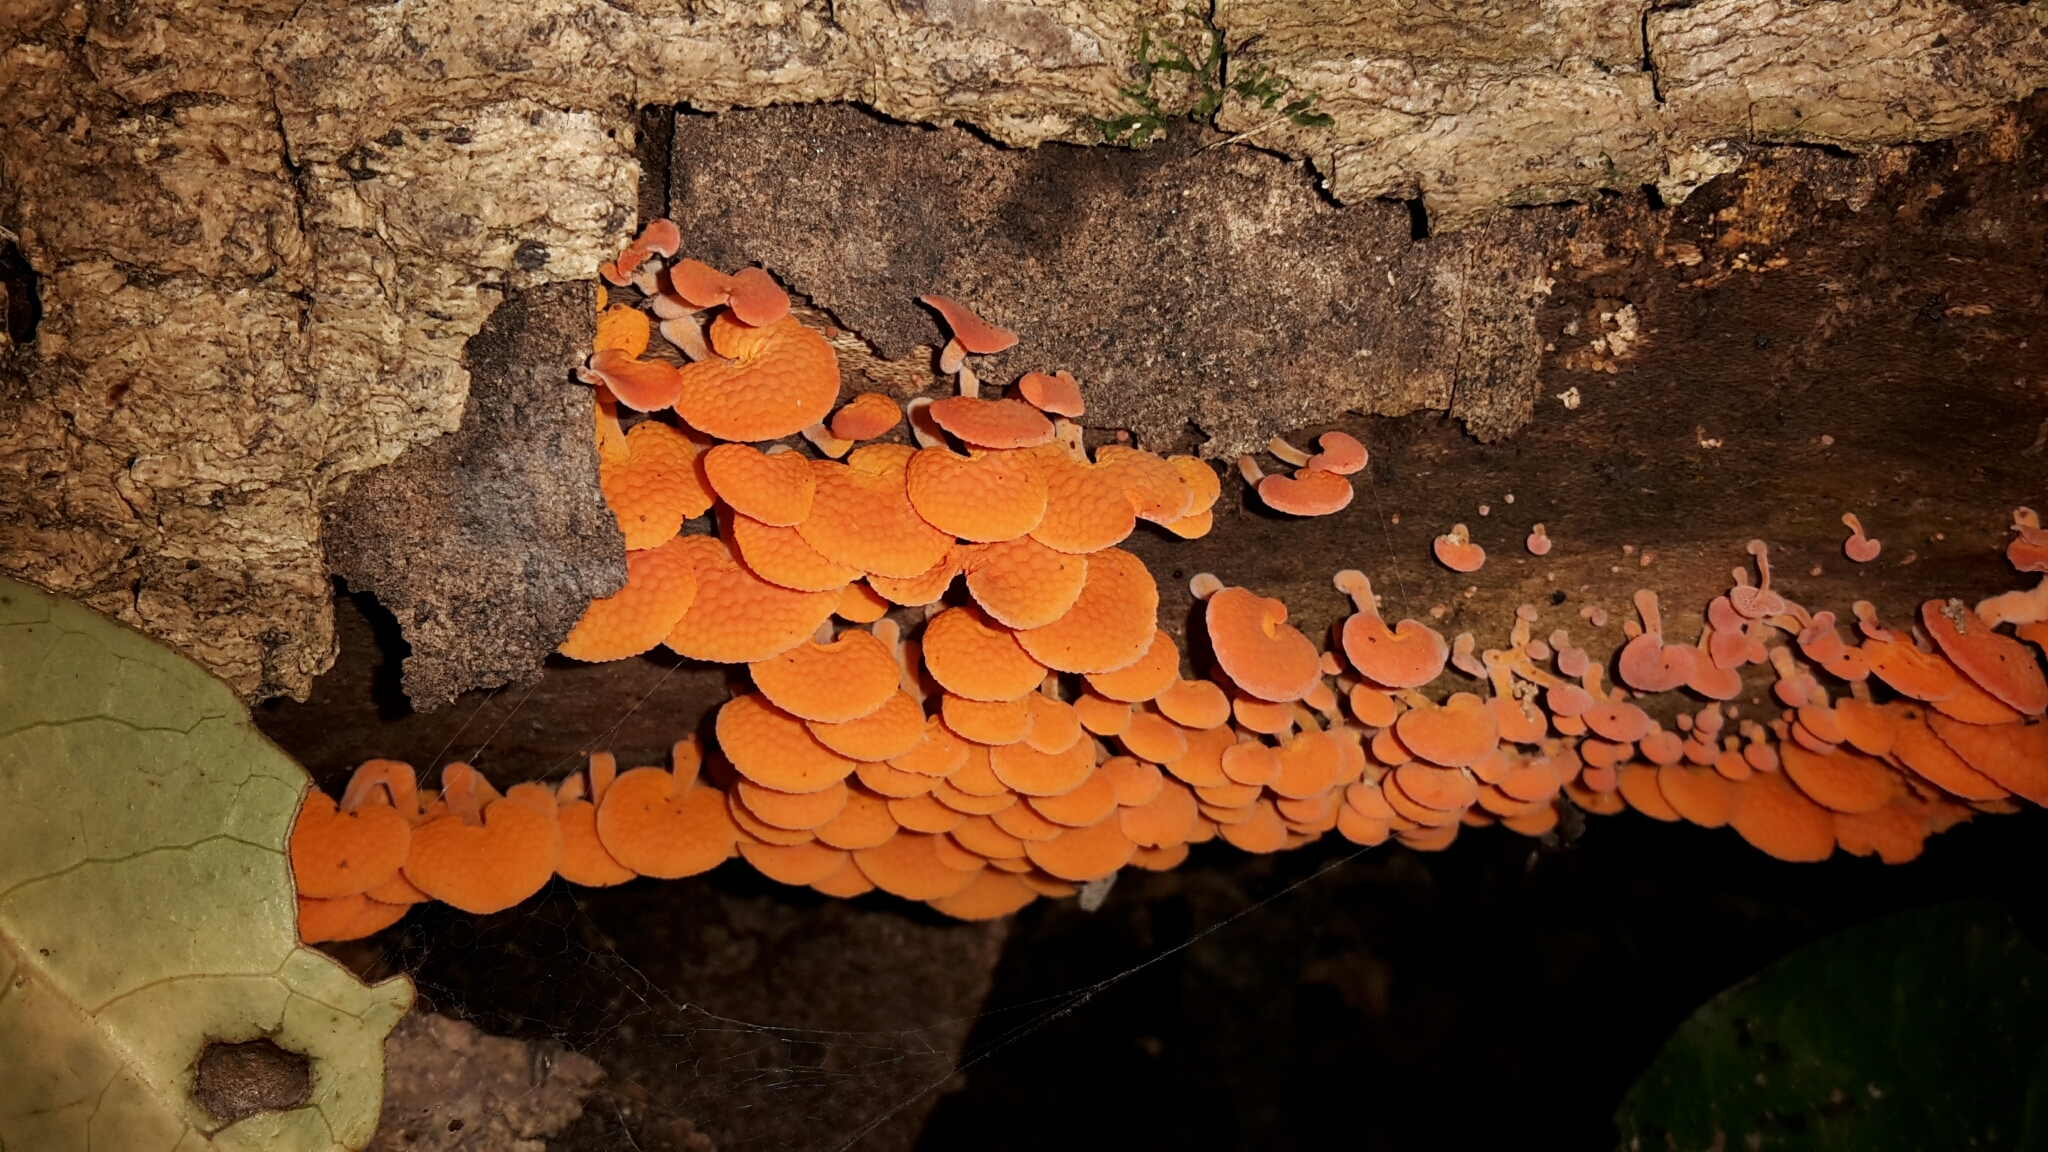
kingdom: Fungi
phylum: Basidiomycota
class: Agaricomycetes
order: Agaricales
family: Mycenaceae
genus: Favolaschia
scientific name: Favolaschia claudopus
